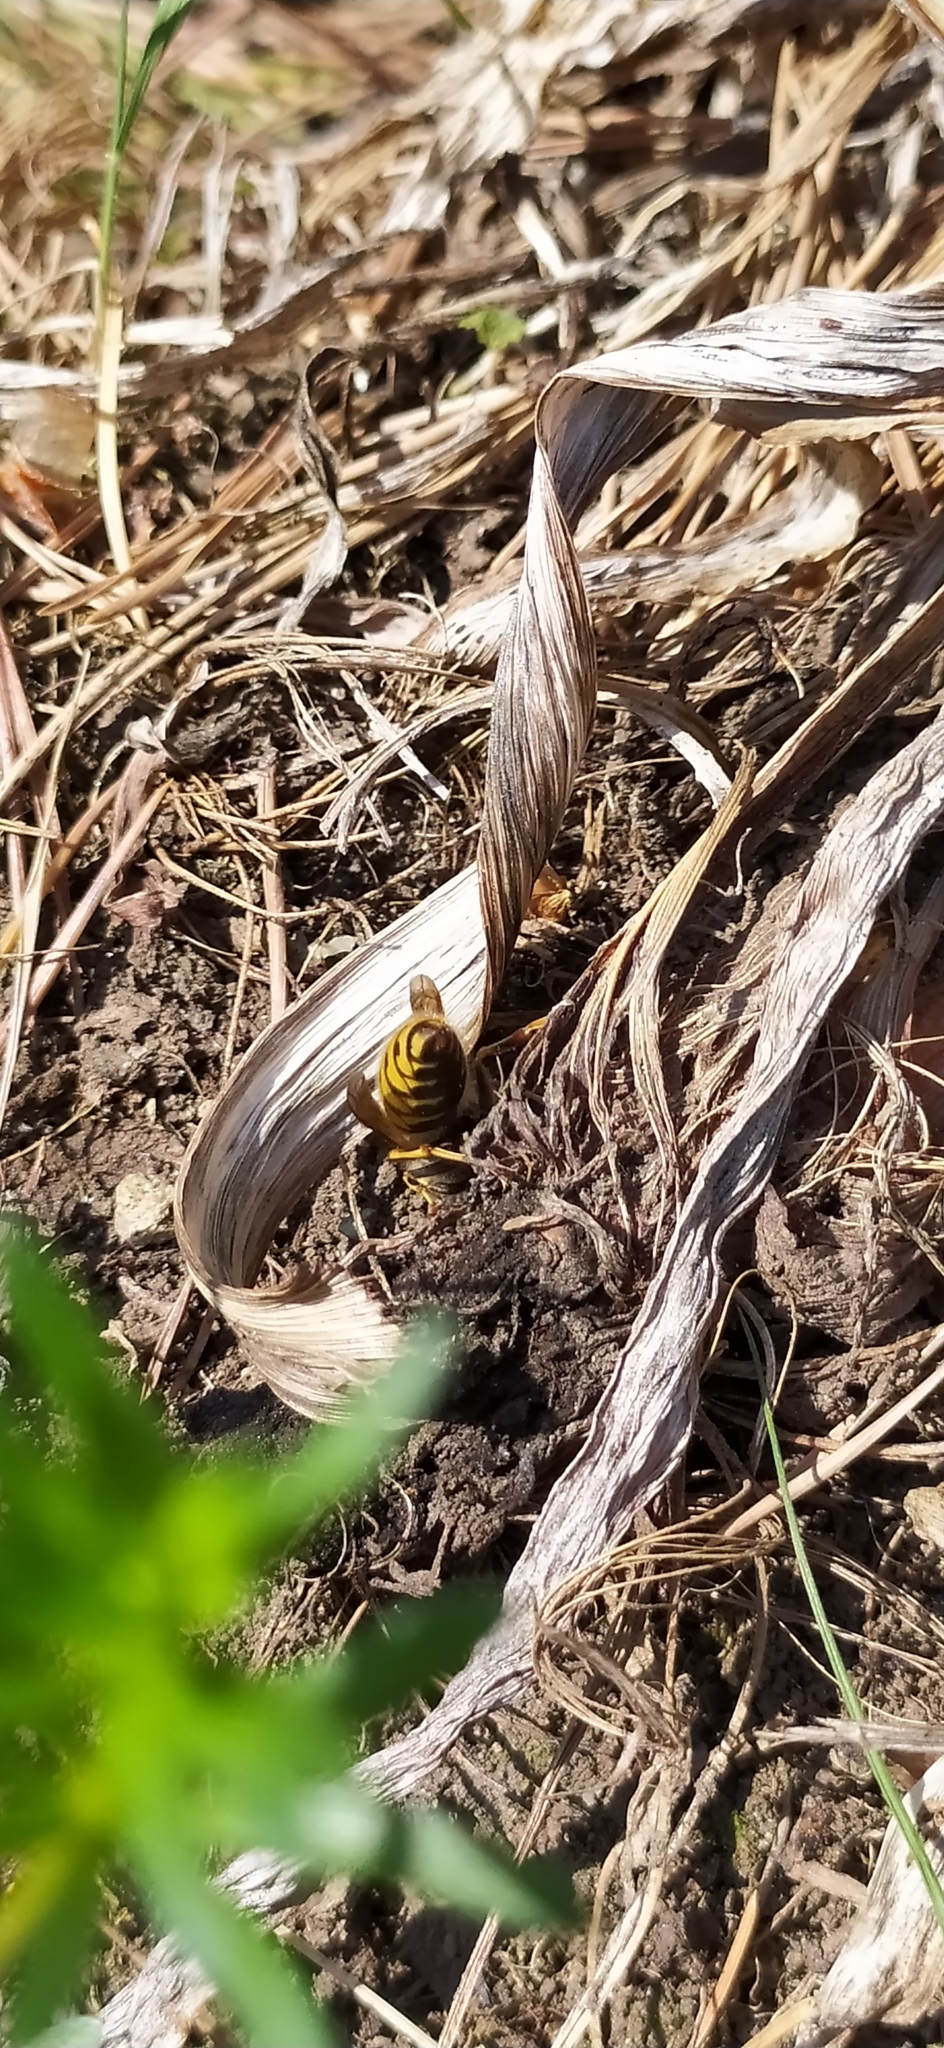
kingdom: Animalia
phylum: Arthropoda
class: Insecta
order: Hymenoptera
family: Vespidae
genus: Vespula
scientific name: Vespula vulgaris
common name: Common wasp
